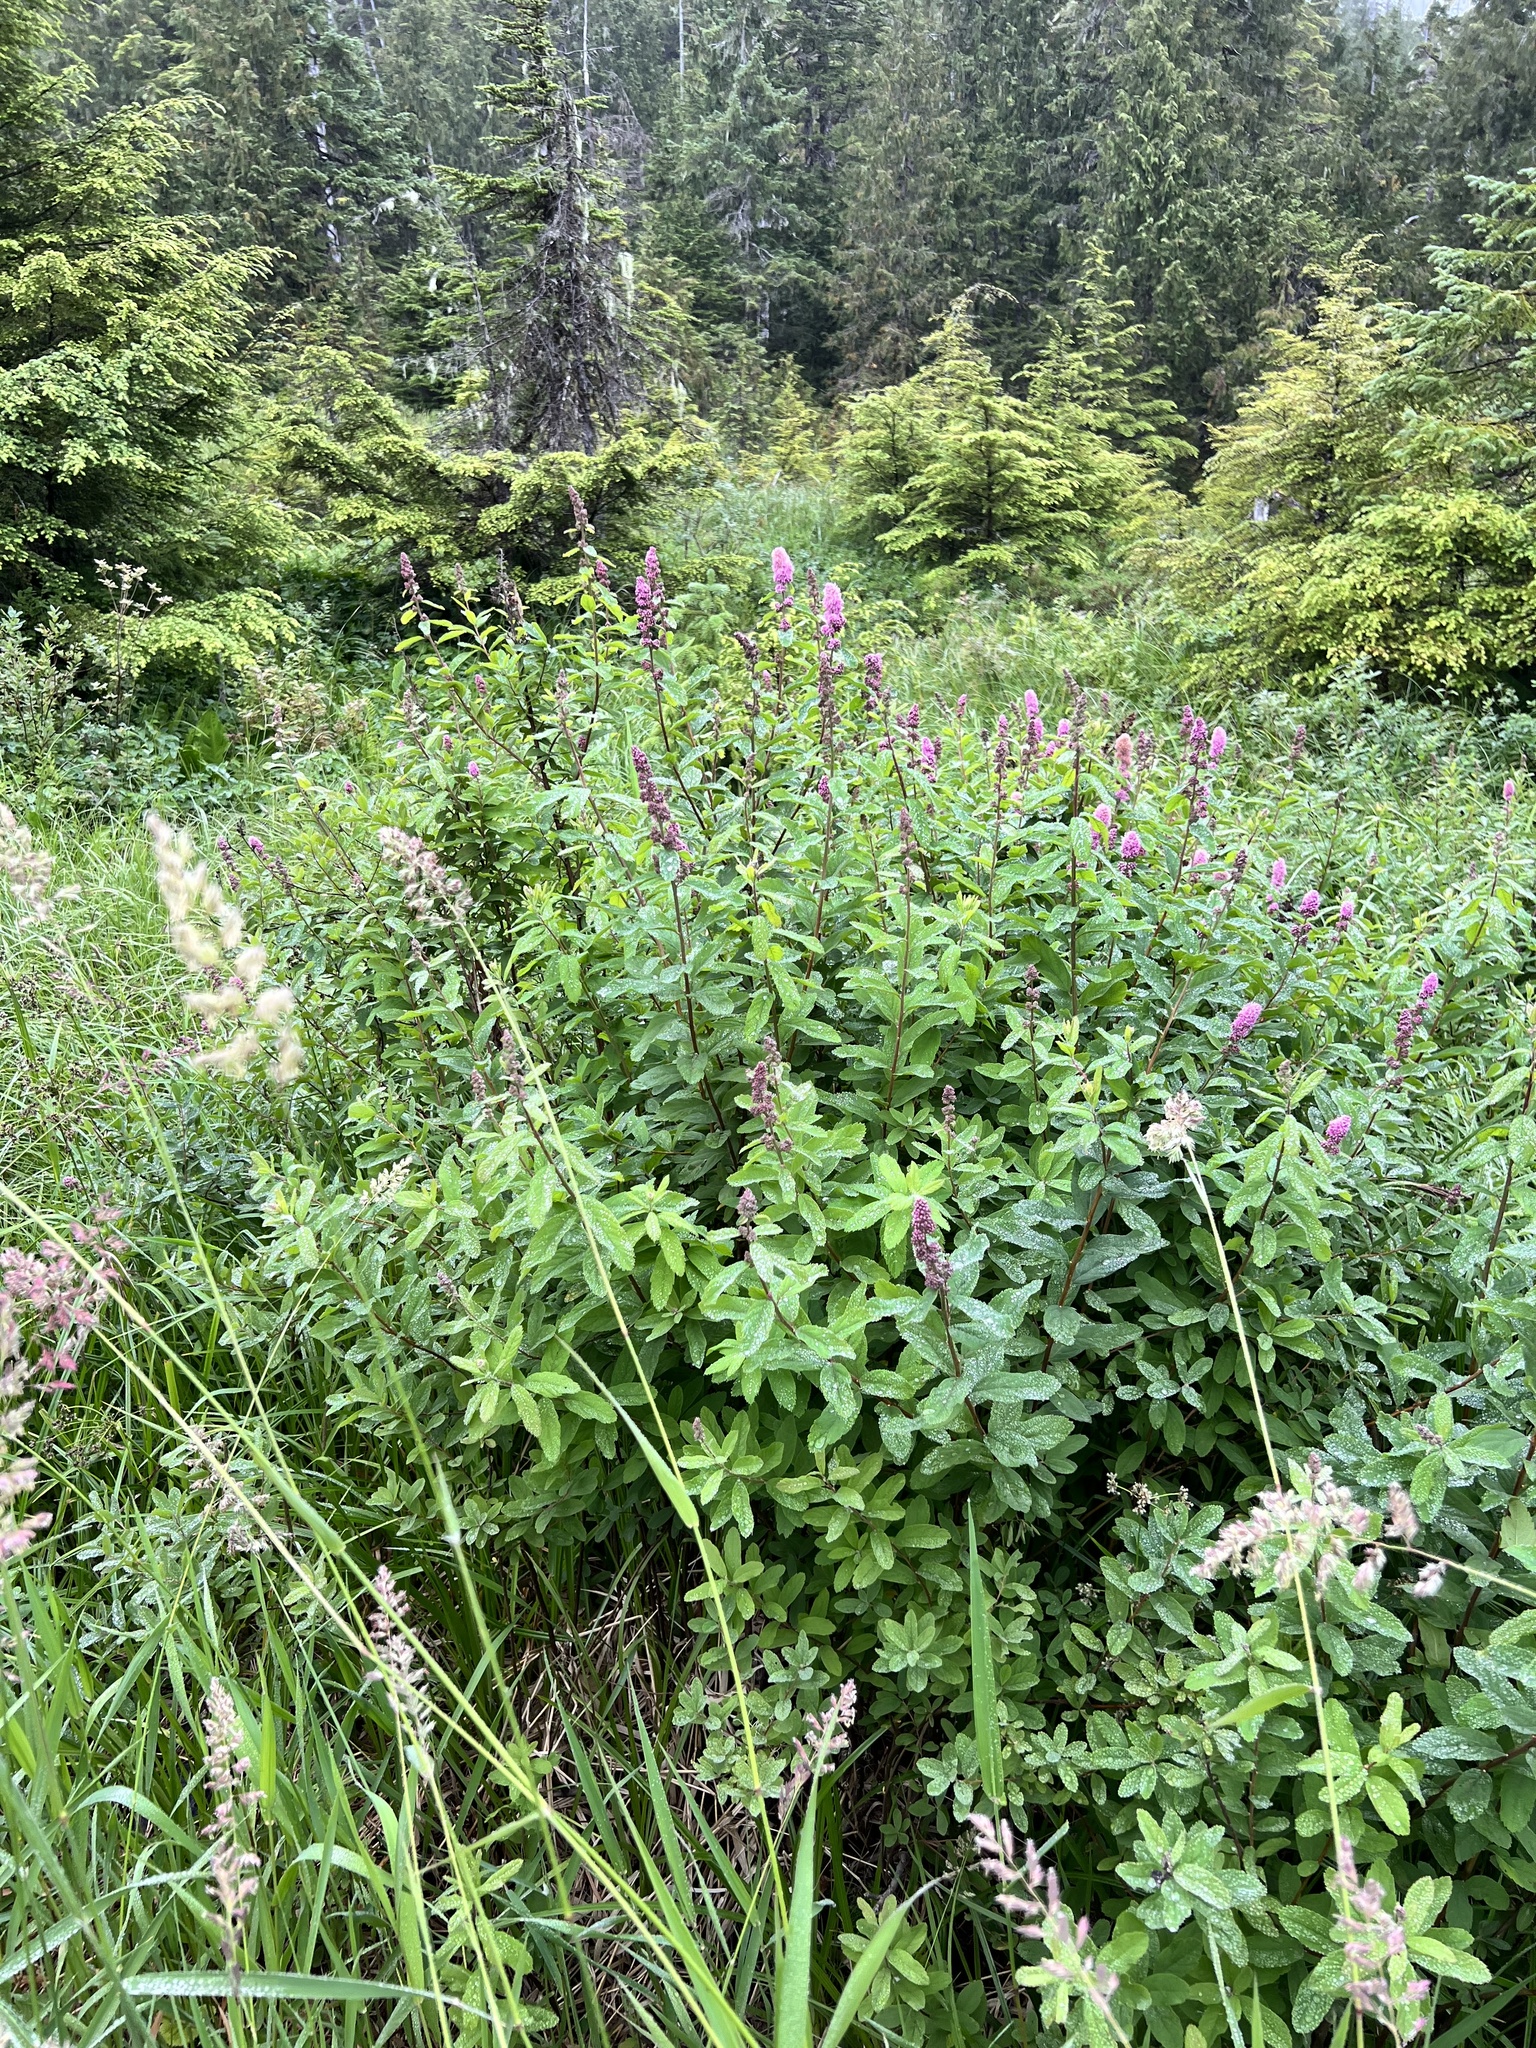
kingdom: Plantae
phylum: Tracheophyta
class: Magnoliopsida
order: Rosales
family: Rosaceae
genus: Spiraea
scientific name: Spiraea douglasii
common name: Steeplebush
